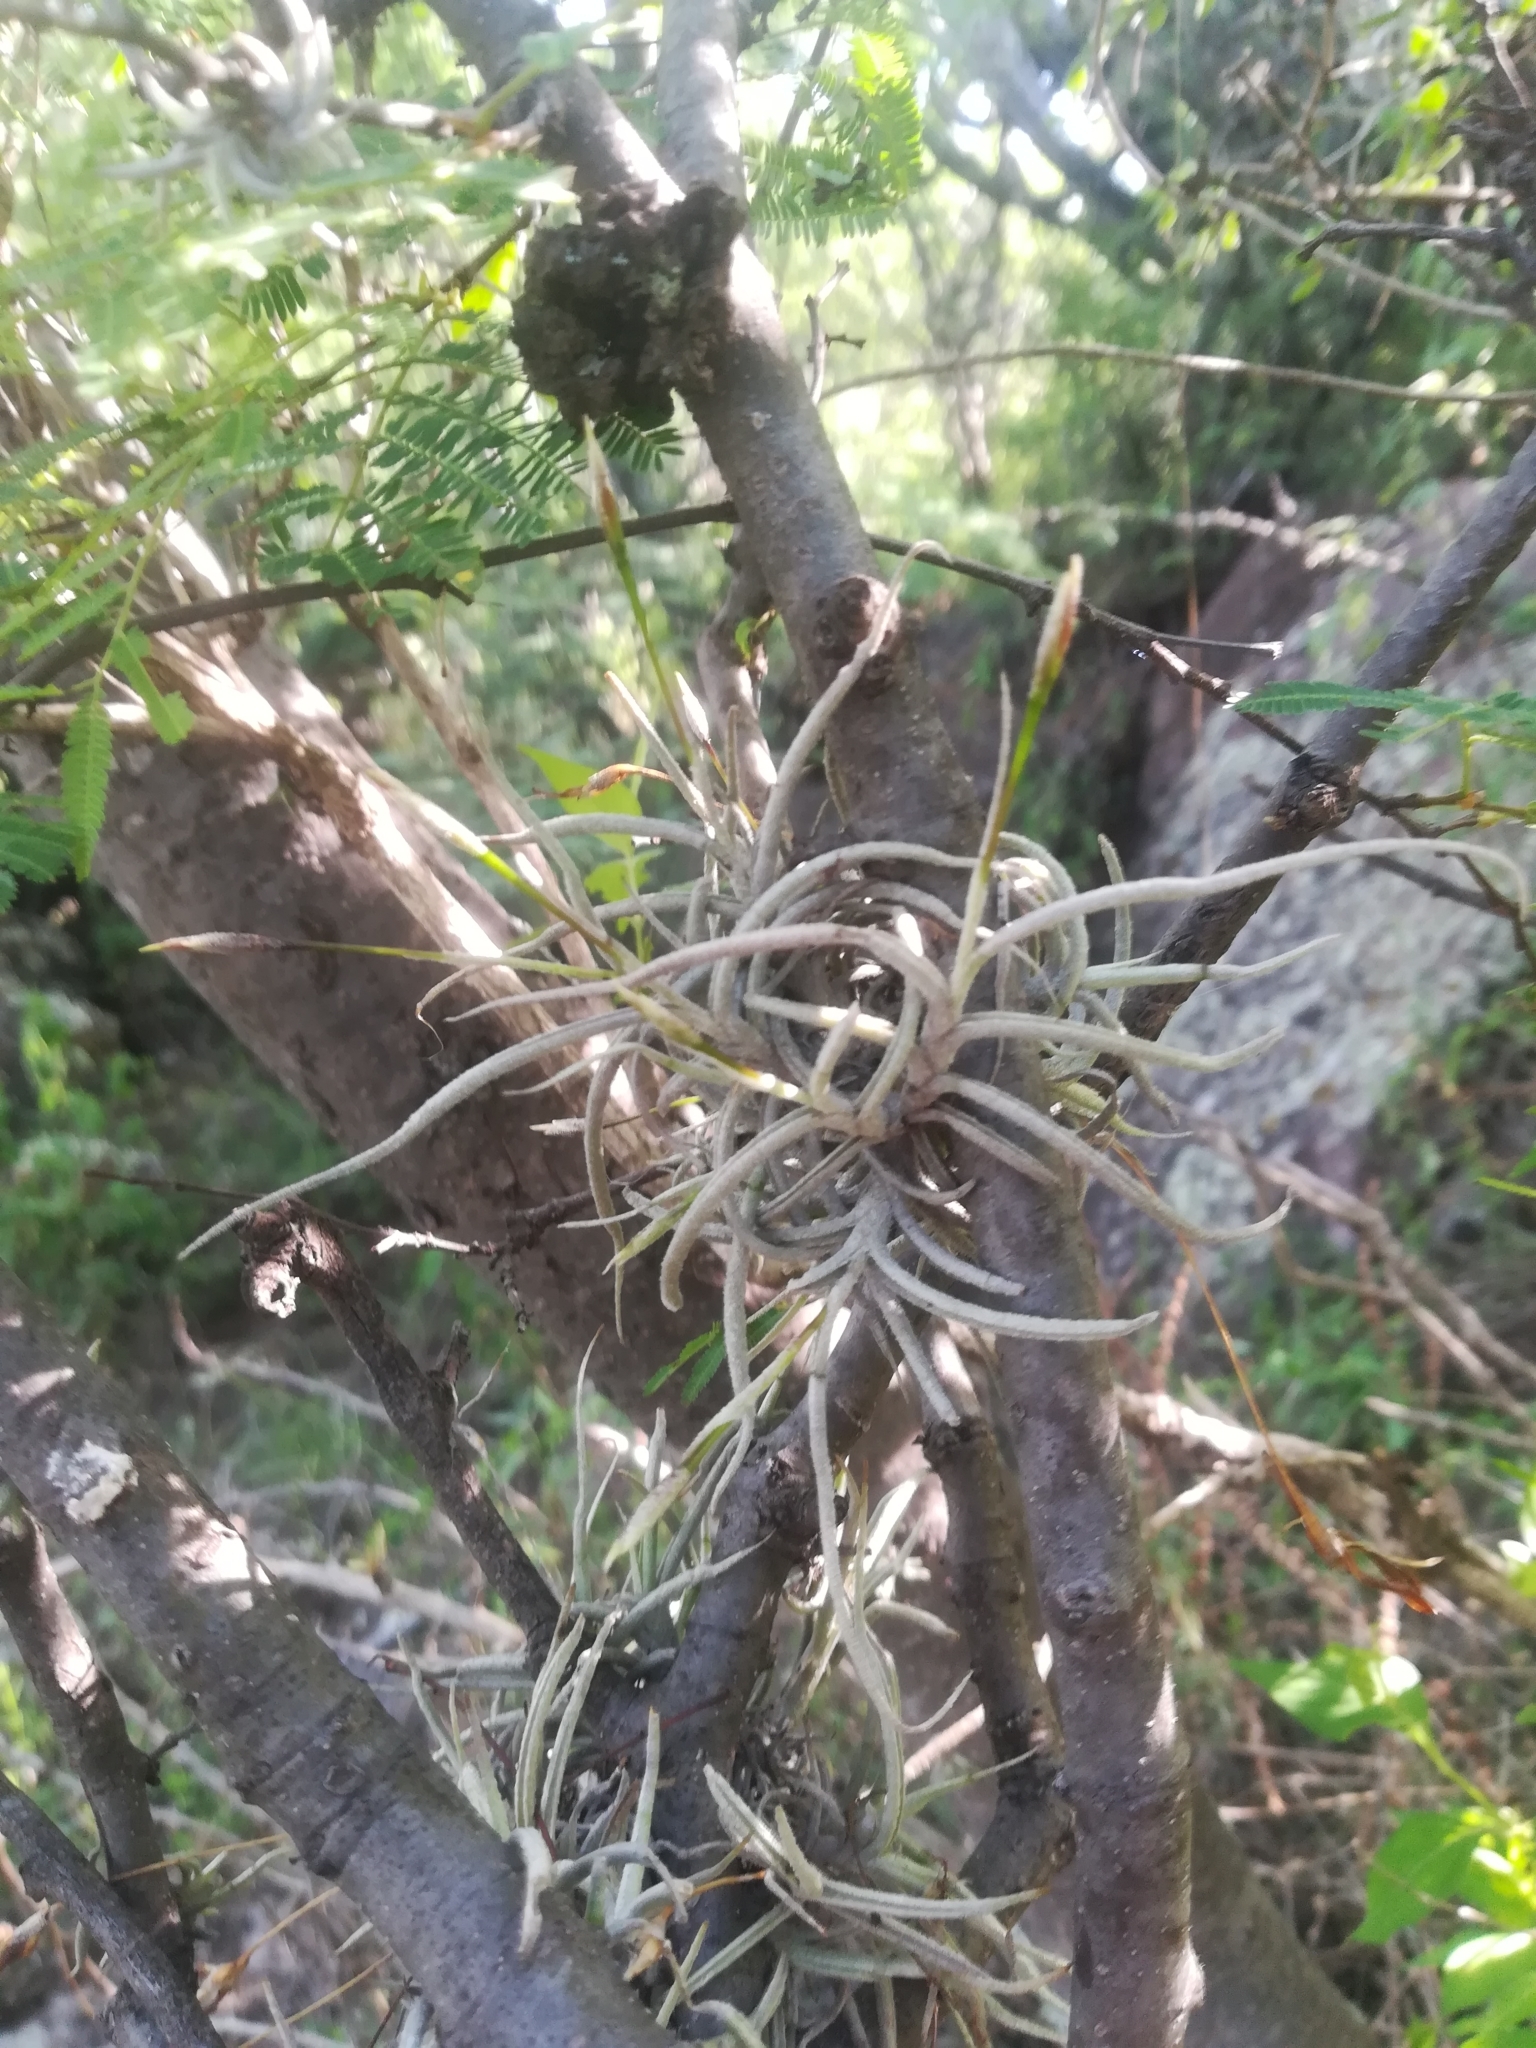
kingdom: Plantae
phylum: Tracheophyta
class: Liliopsida
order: Poales
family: Bromeliaceae
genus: Tillandsia
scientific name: Tillandsia recurvata
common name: Small ballmoss
